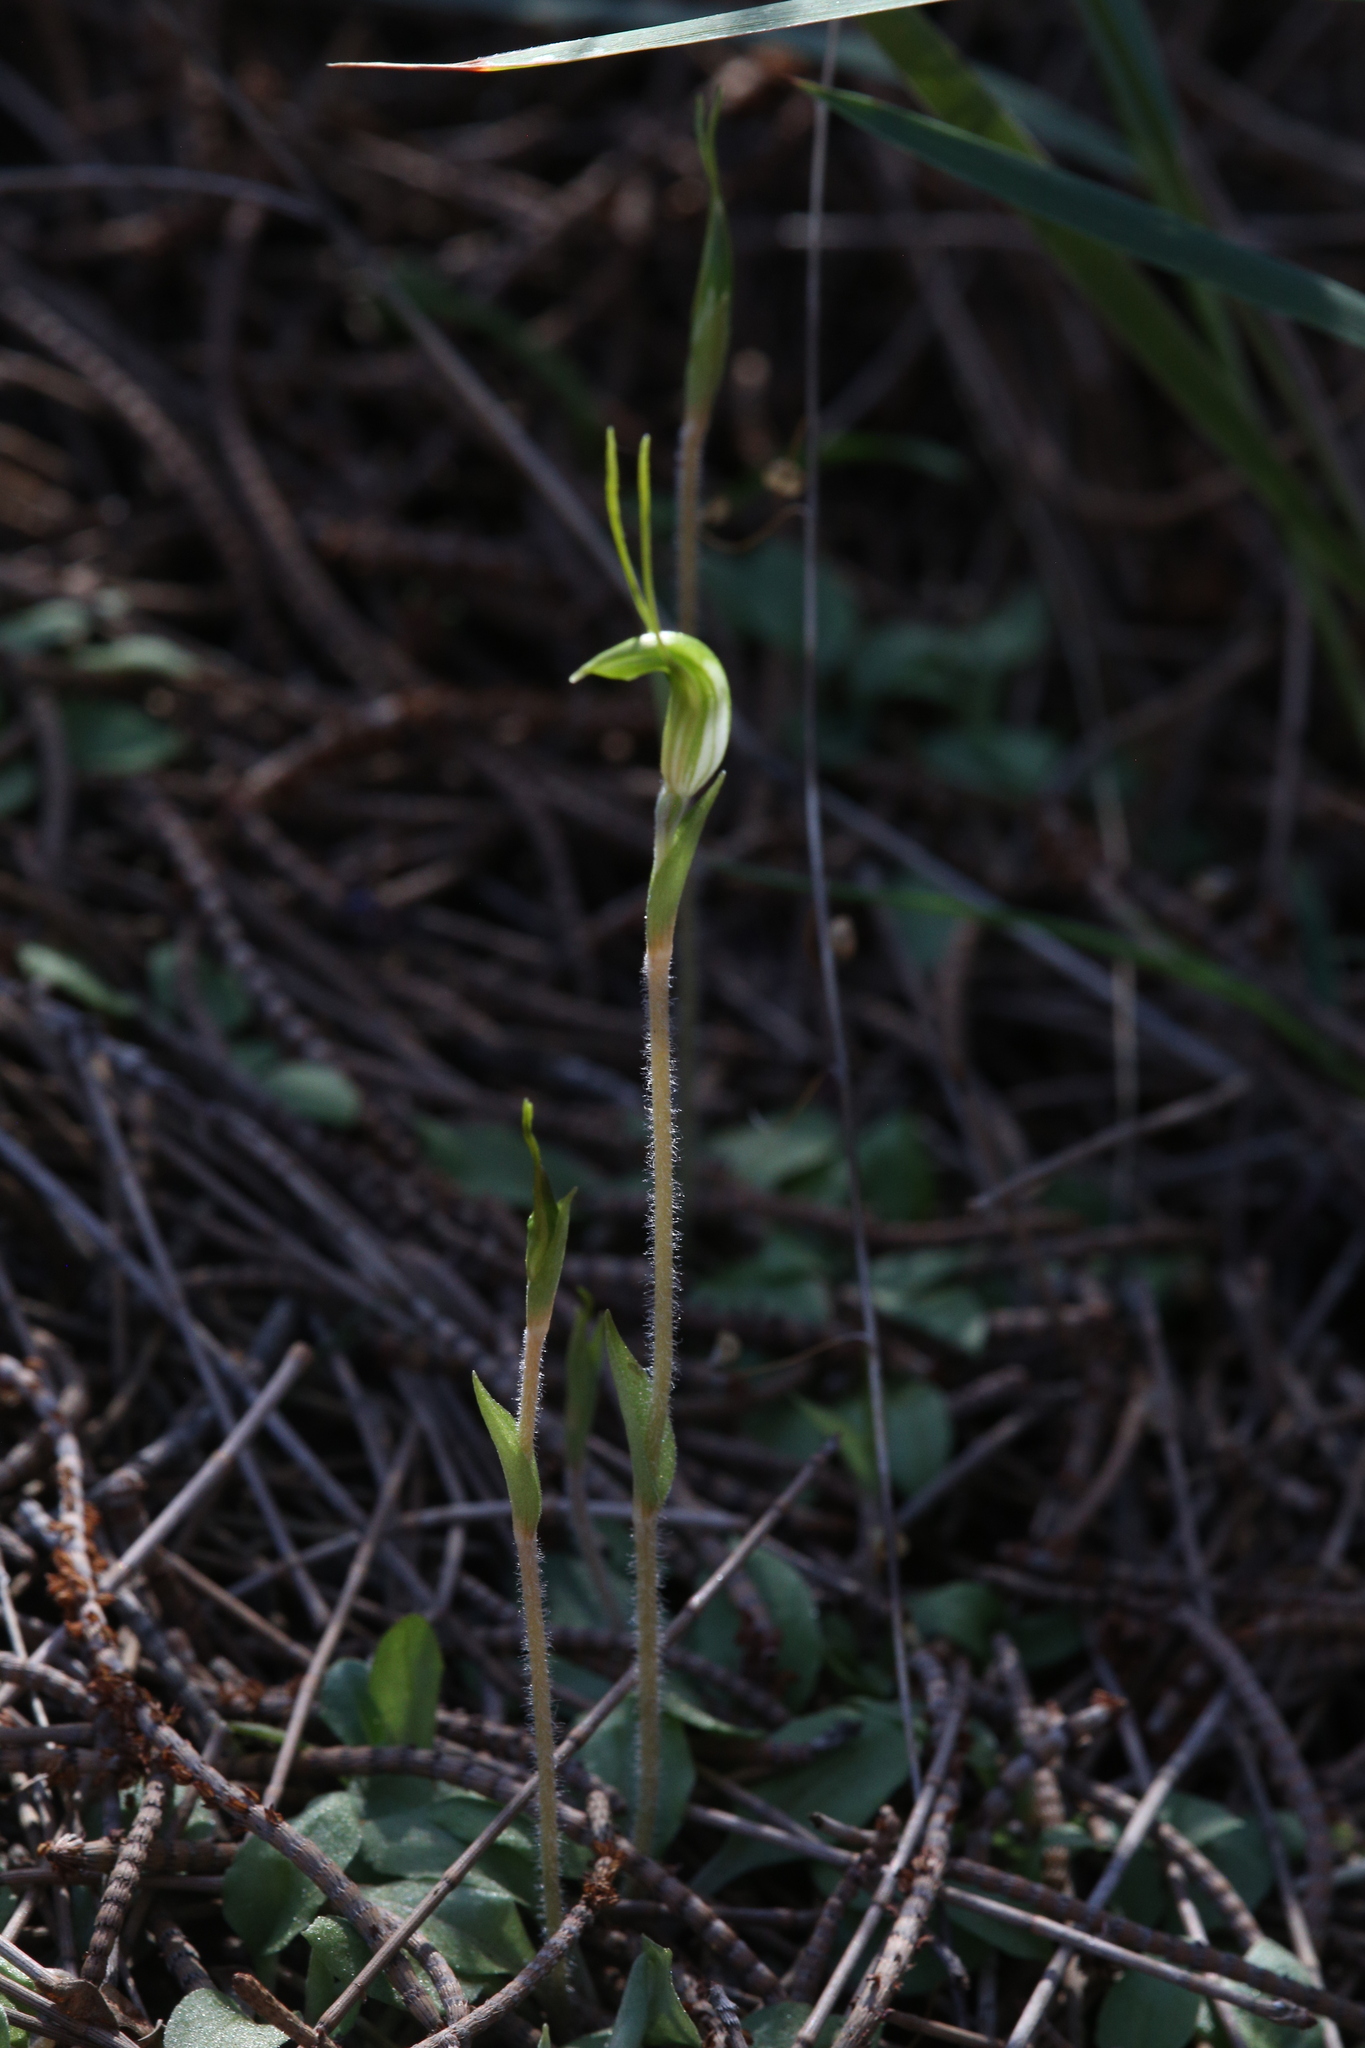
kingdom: Plantae
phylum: Tracheophyta
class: Liliopsida
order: Asparagales
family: Orchidaceae
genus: Pterostylis
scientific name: Pterostylis setulosa
